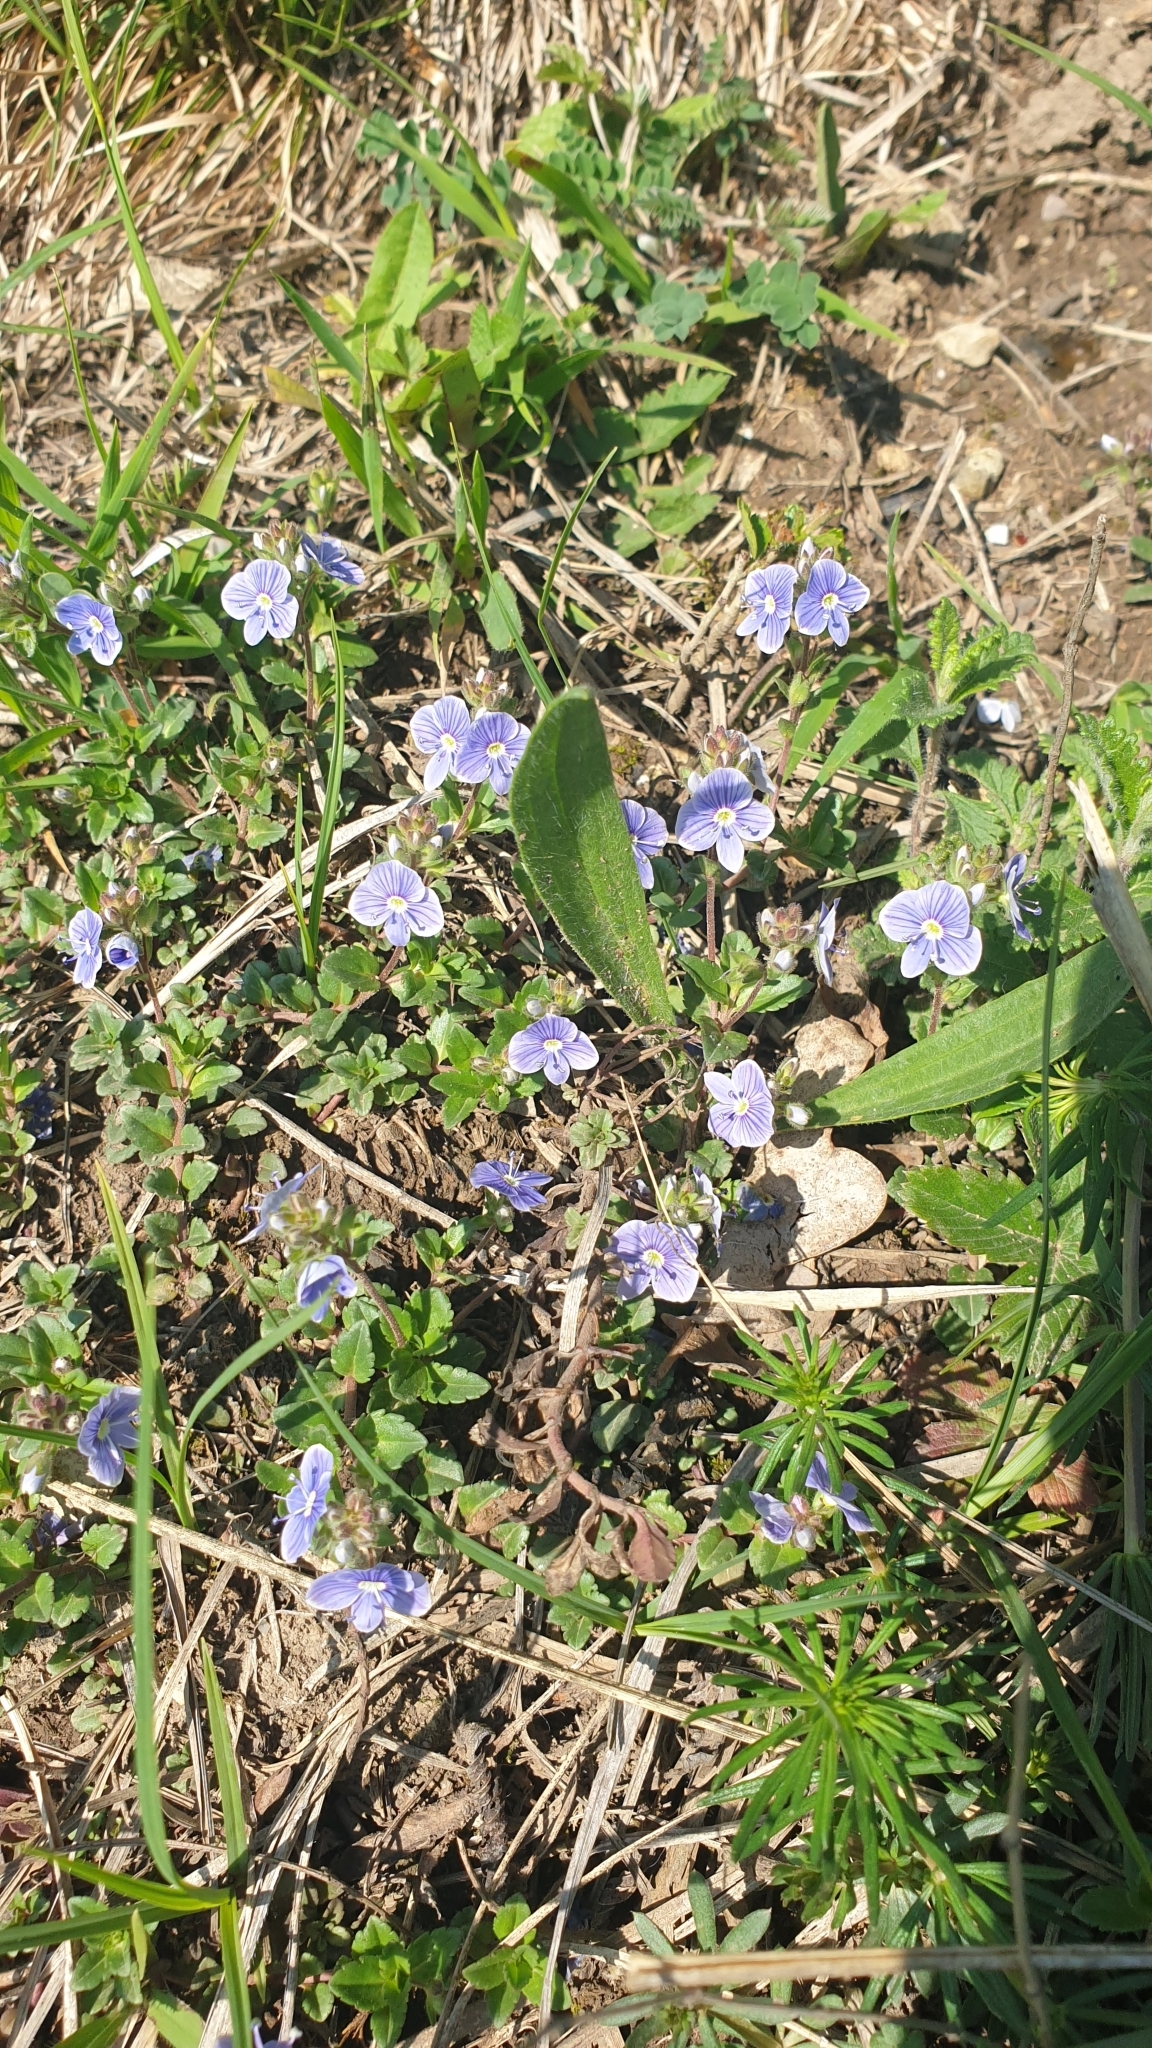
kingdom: Plantae
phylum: Tracheophyta
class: Magnoliopsida
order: Lamiales
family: Plantaginaceae
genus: Veronica
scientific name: Veronica petraea
